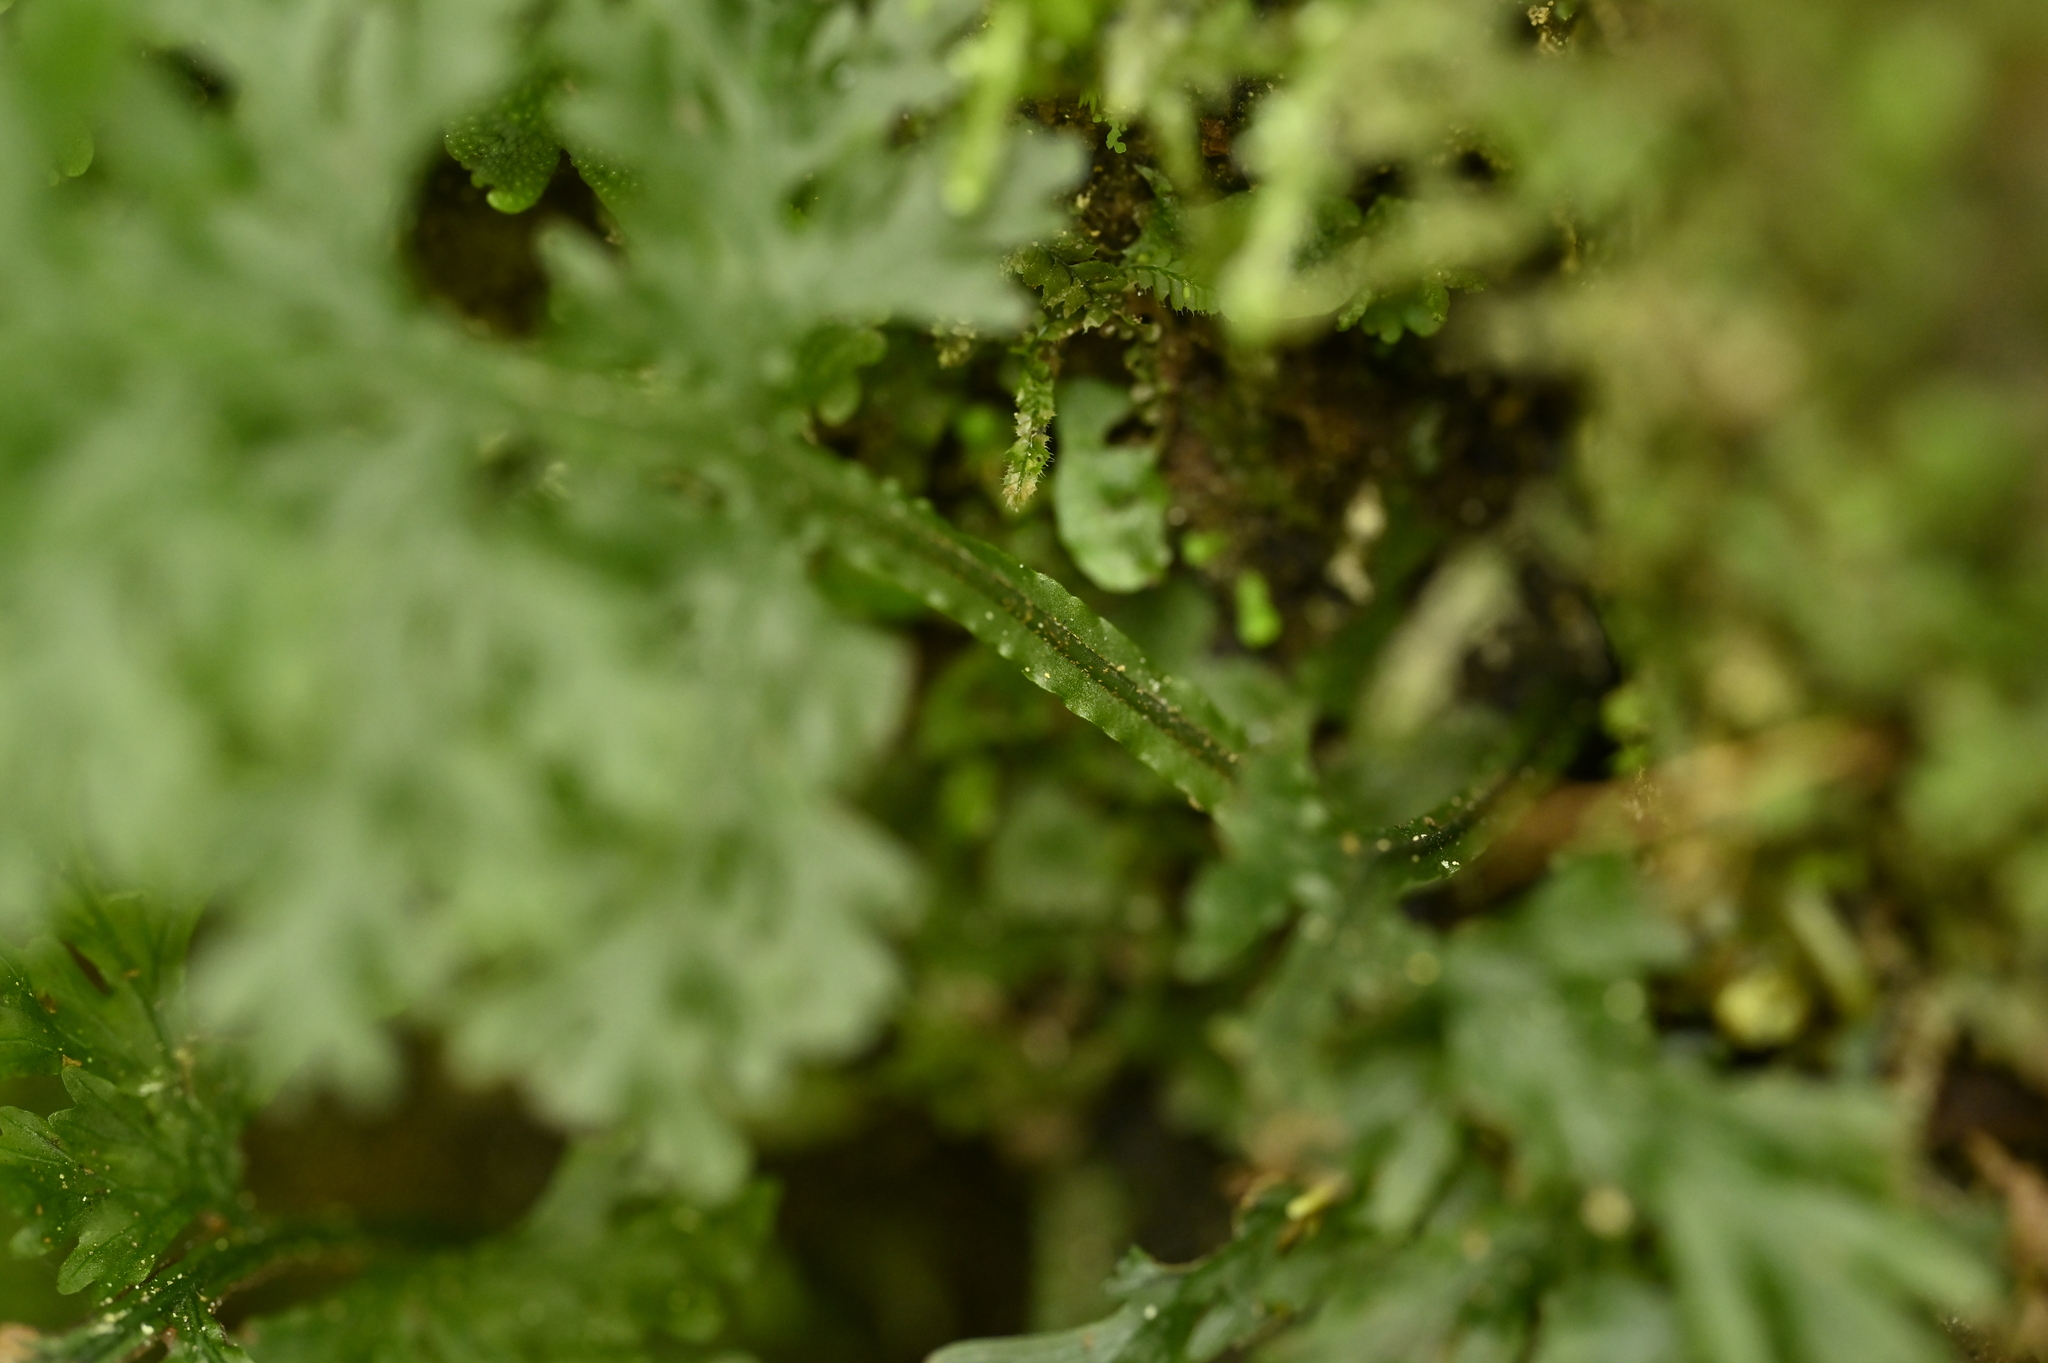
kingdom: Plantae
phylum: Tracheophyta
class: Polypodiopsida
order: Hymenophyllales
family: Hymenophyllaceae
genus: Vandenboschia
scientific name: Vandenboschia kalamocarpa
